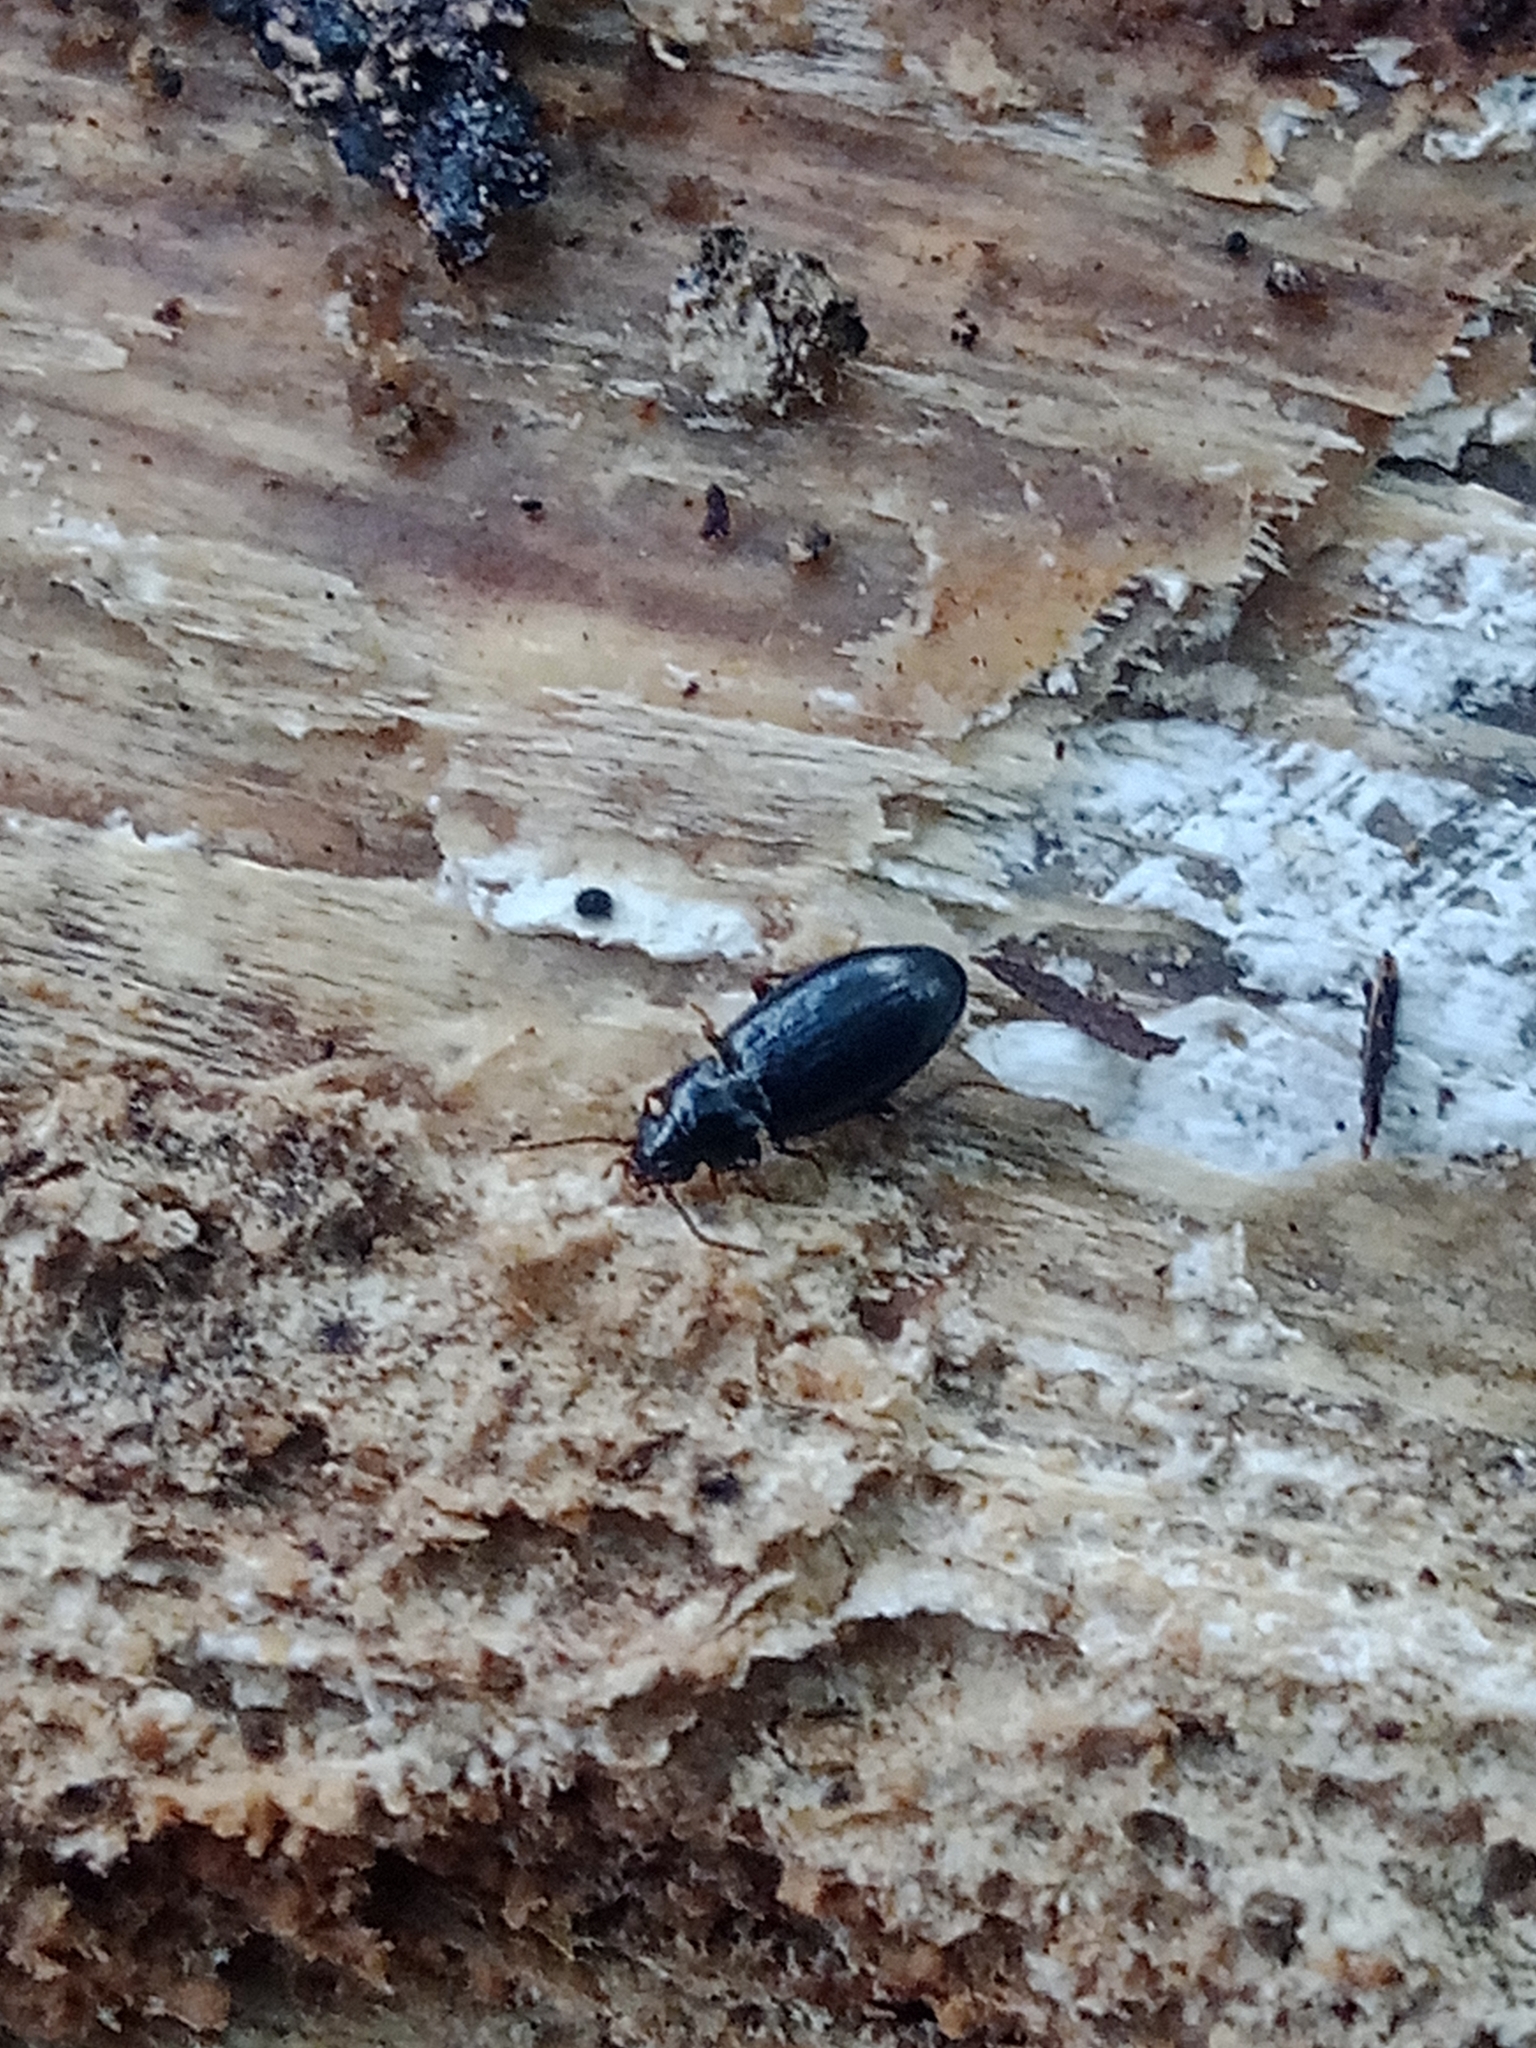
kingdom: Animalia
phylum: Arthropoda
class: Insecta
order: Coleoptera
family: Carabidae
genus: Tachyta
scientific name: Tachyta nana
